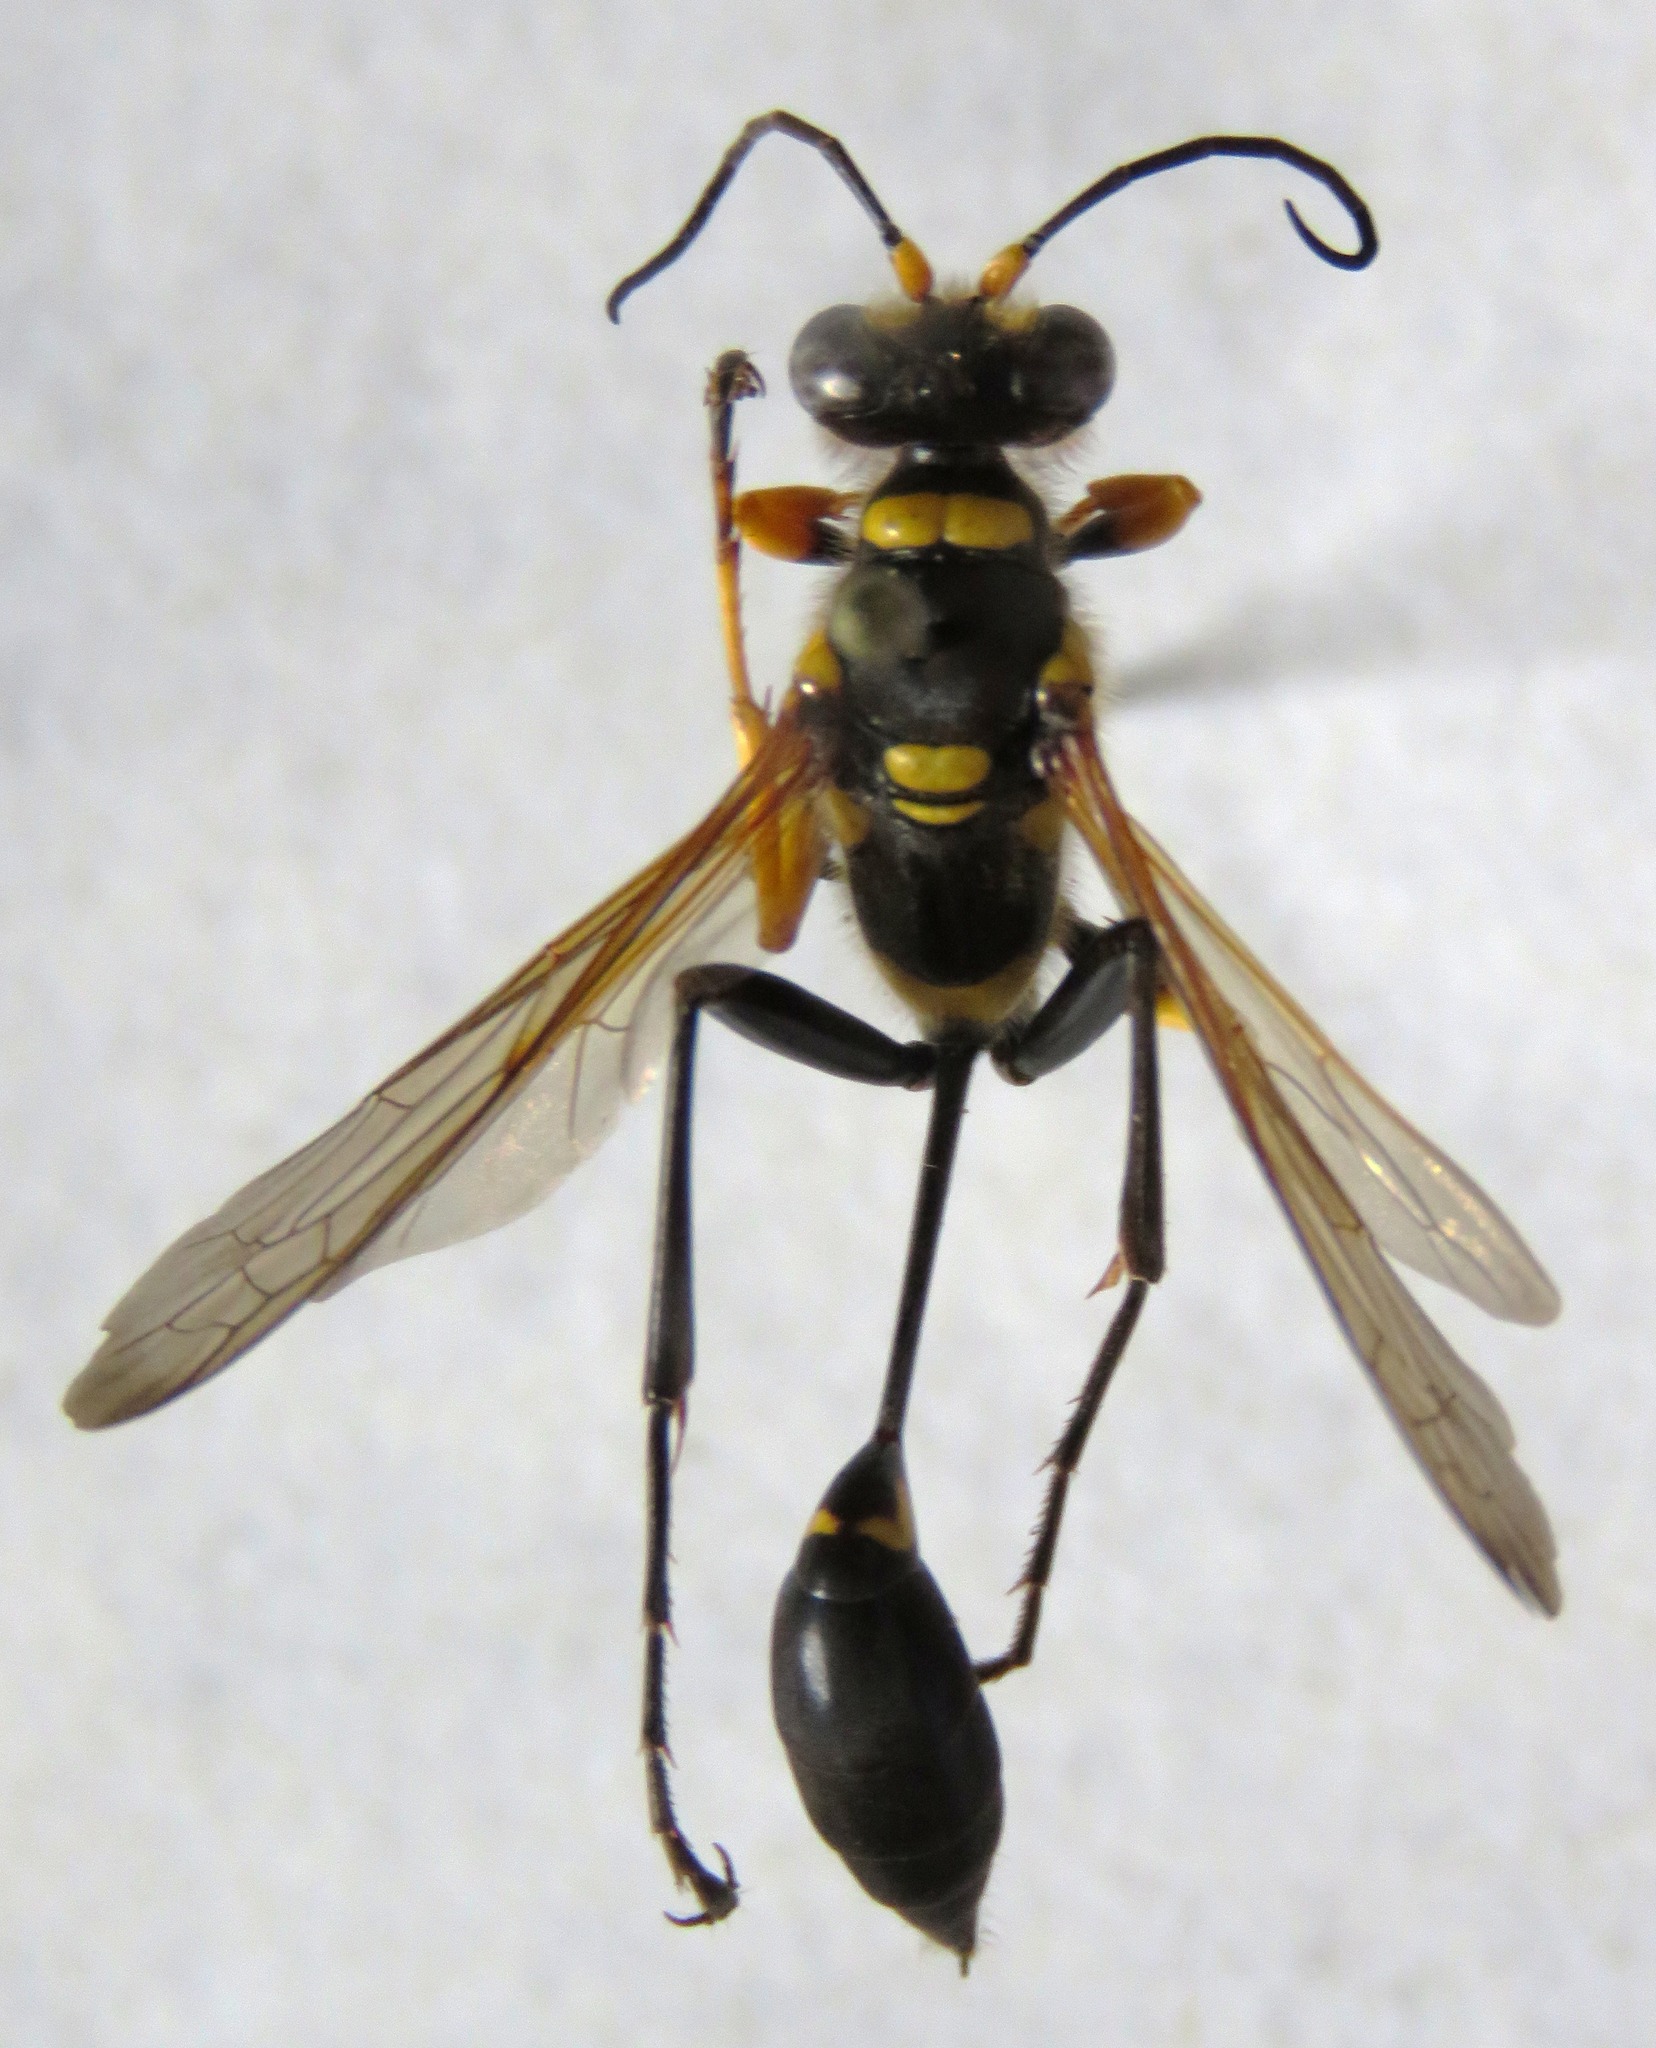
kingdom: Animalia
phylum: Arthropoda
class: Insecta
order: Hymenoptera
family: Sphecidae
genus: Sceliphron
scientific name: Sceliphron assimile
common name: Clayman's mud dauber
